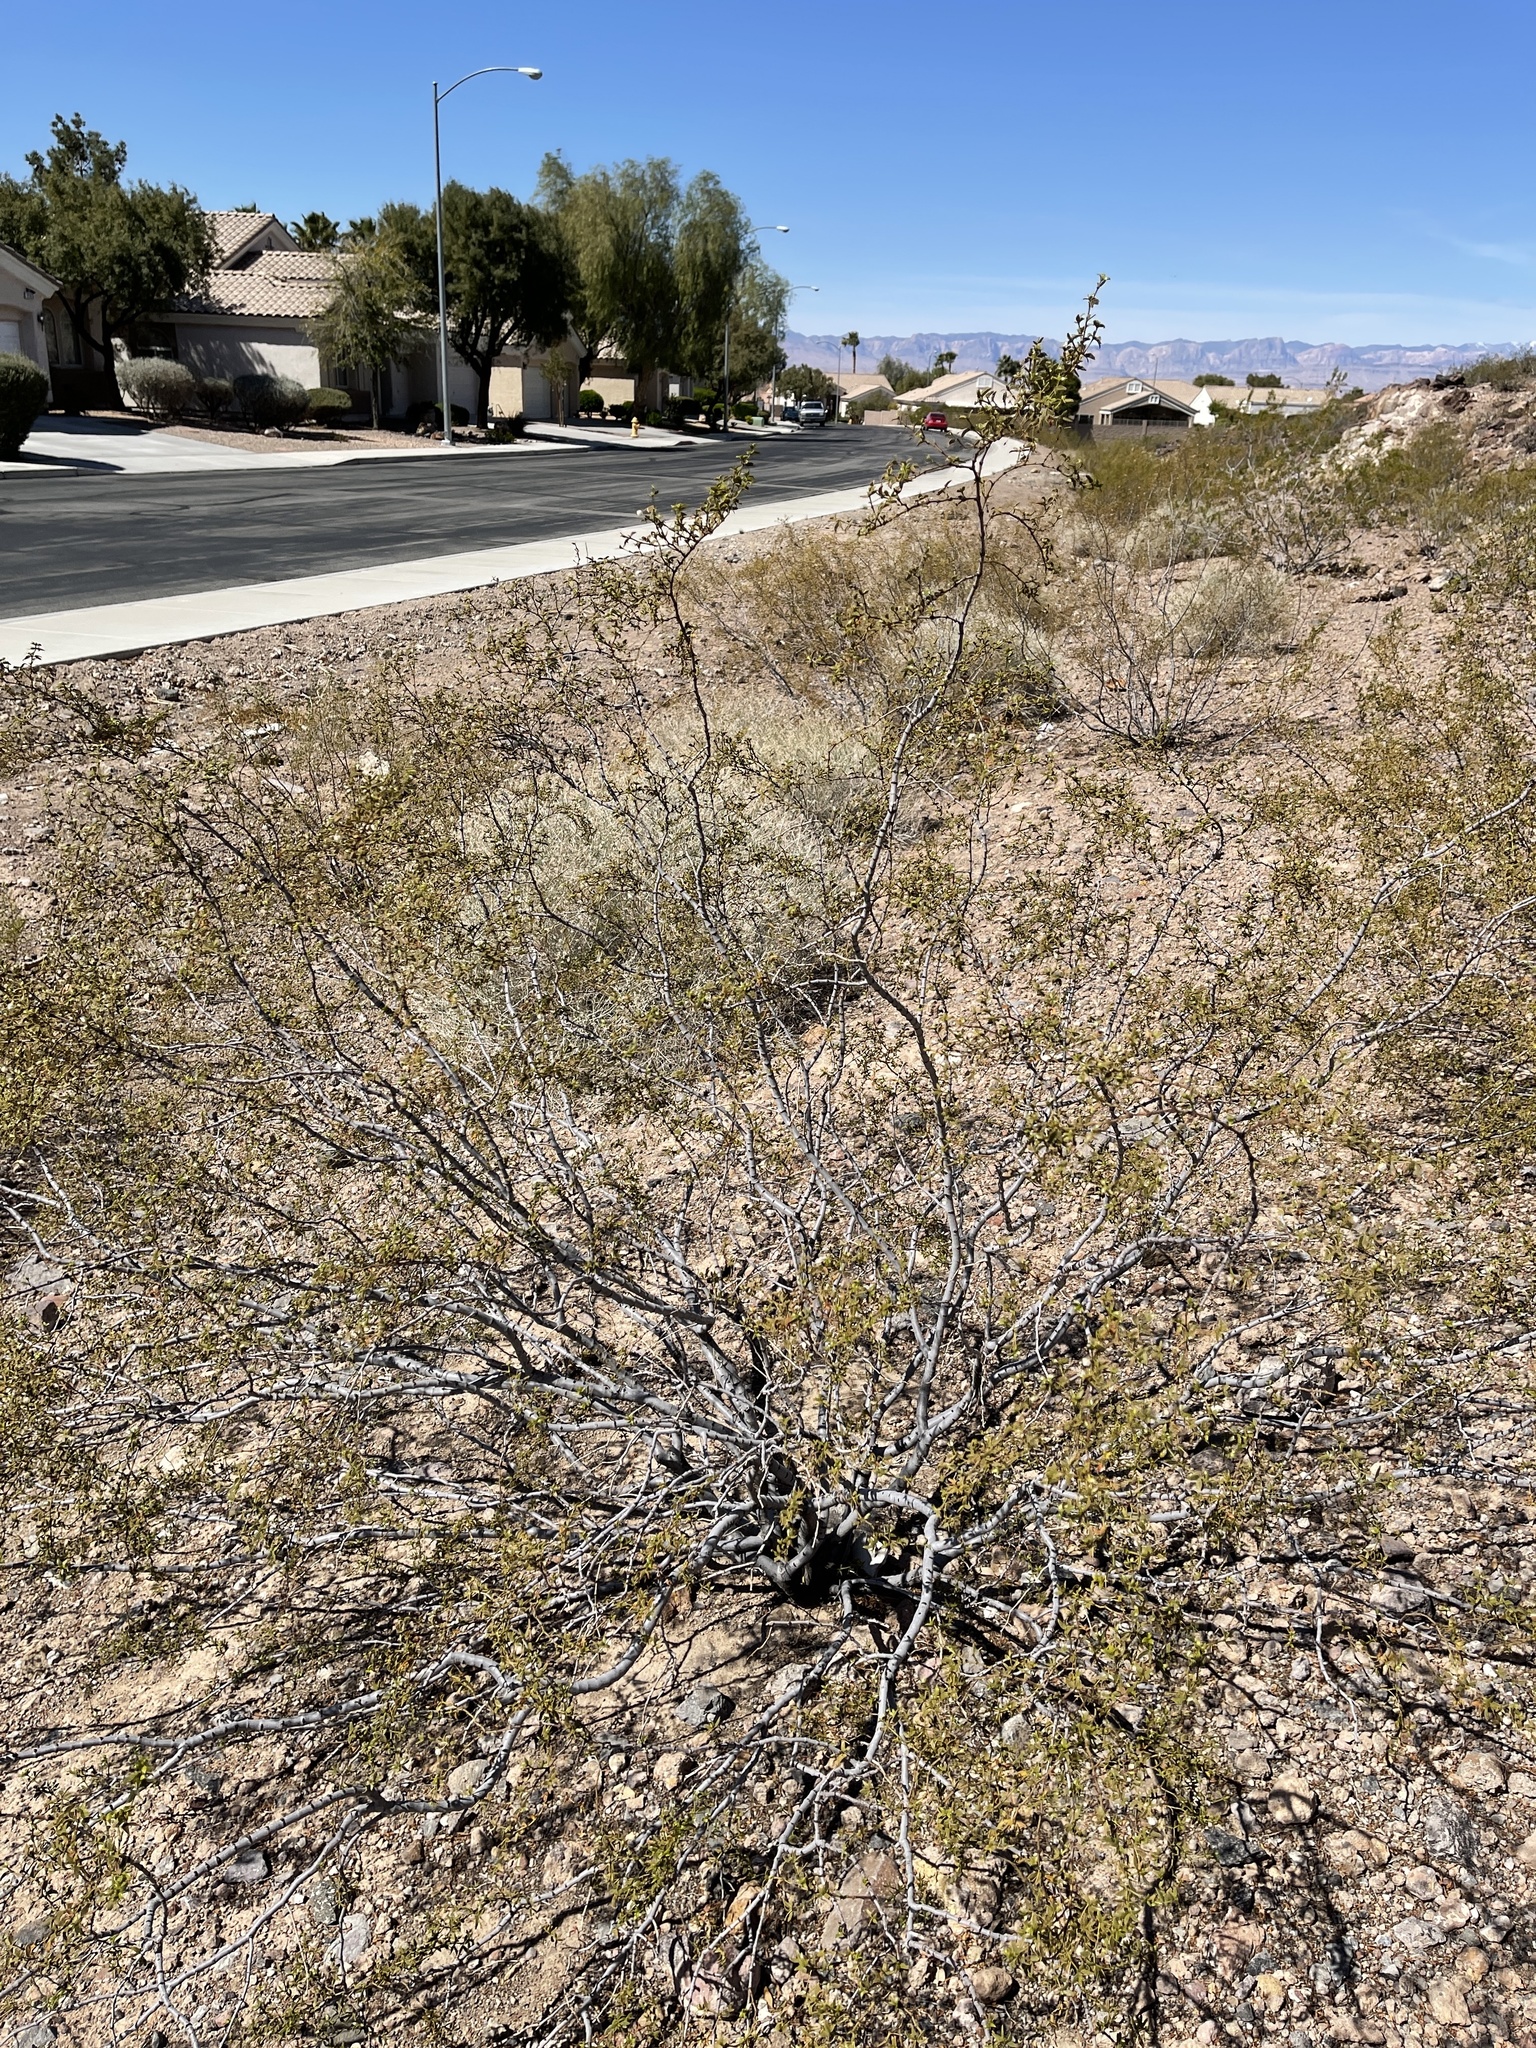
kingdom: Plantae
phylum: Tracheophyta
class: Magnoliopsida
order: Zygophyllales
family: Zygophyllaceae
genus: Larrea
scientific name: Larrea tridentata
